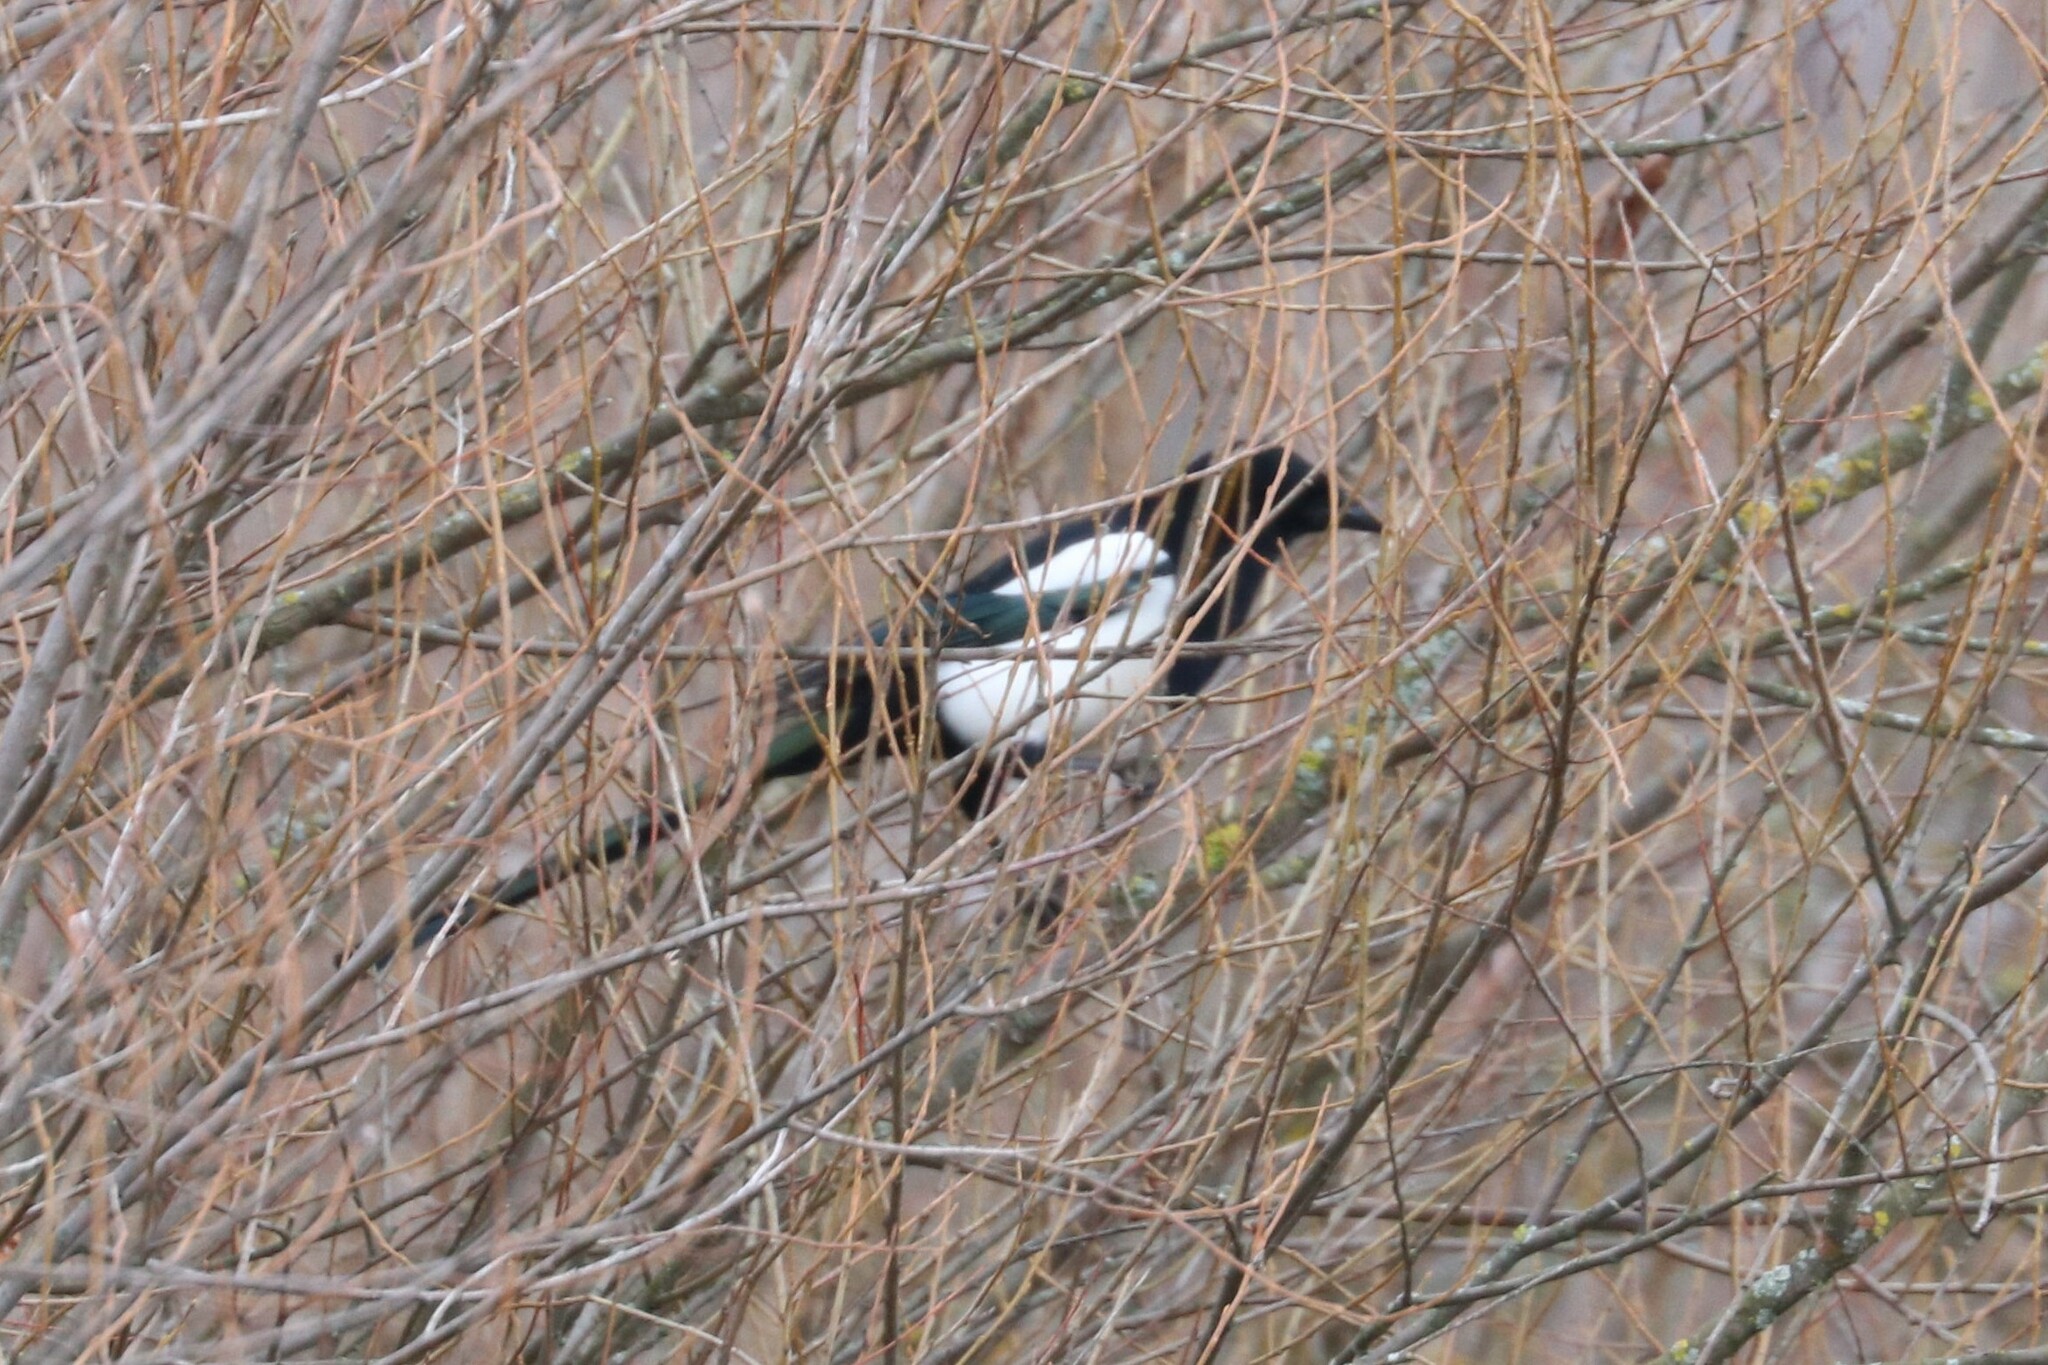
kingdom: Animalia
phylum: Chordata
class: Aves
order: Passeriformes
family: Corvidae
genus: Pica
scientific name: Pica pica
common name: Eurasian magpie
